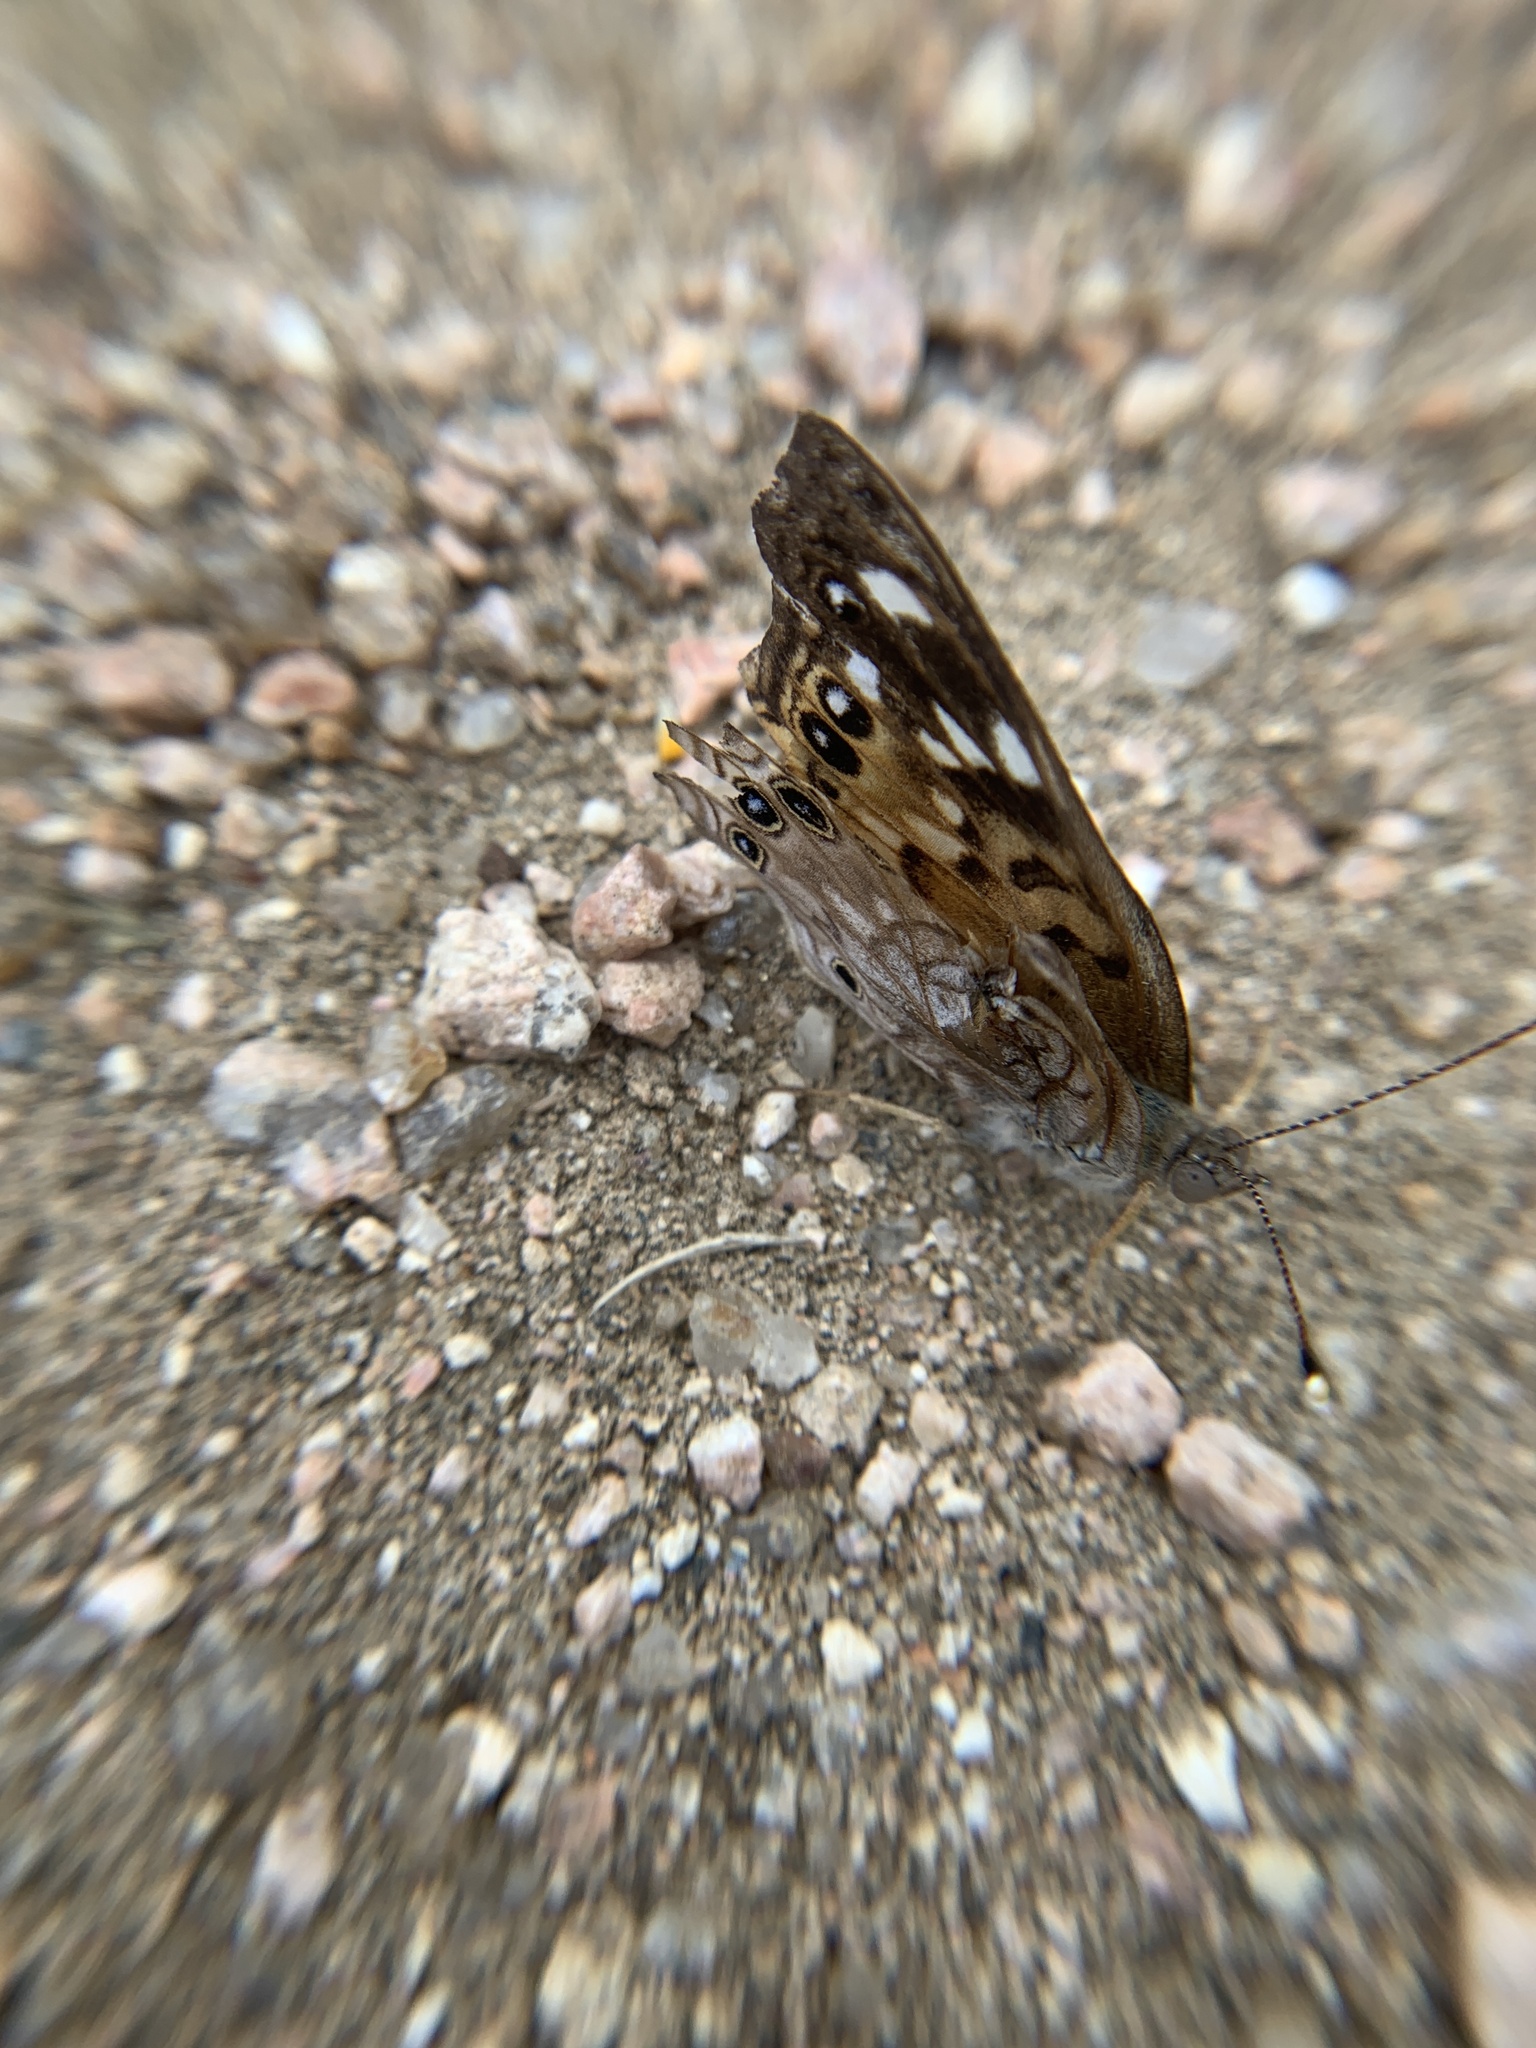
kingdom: Animalia
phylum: Arthropoda
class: Insecta
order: Lepidoptera
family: Nymphalidae
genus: Asterocampa
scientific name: Asterocampa celtis
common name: Hackberry emperor
